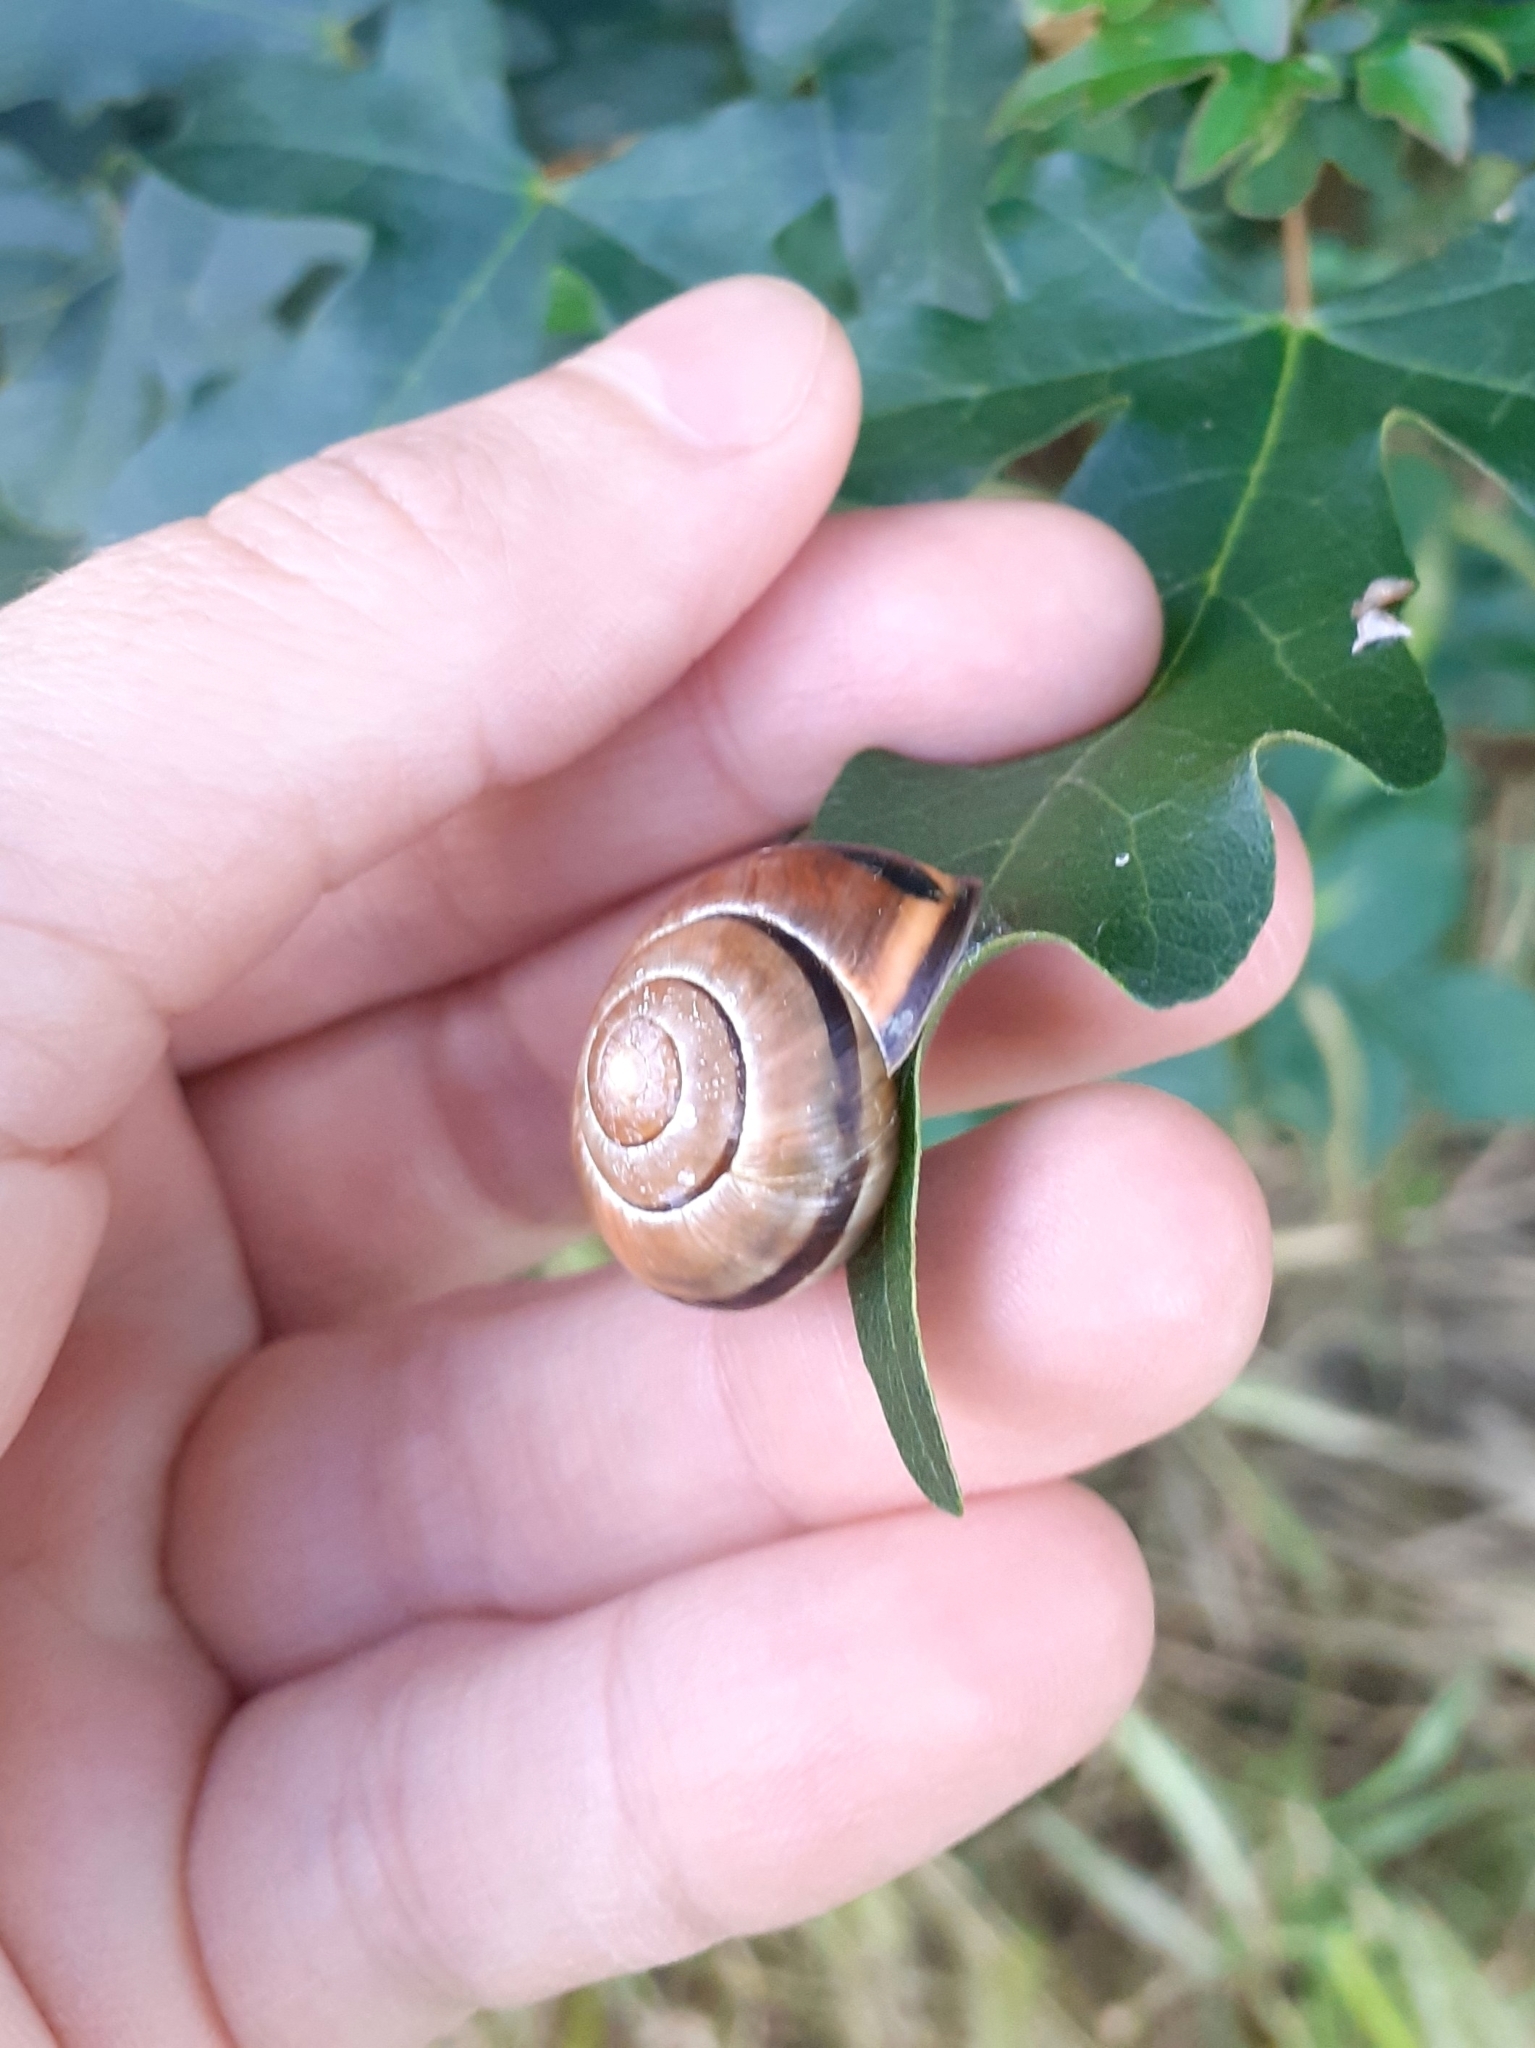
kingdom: Animalia
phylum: Mollusca
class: Gastropoda
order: Stylommatophora
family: Helicidae
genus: Cepaea
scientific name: Cepaea nemoralis
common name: Grovesnail
